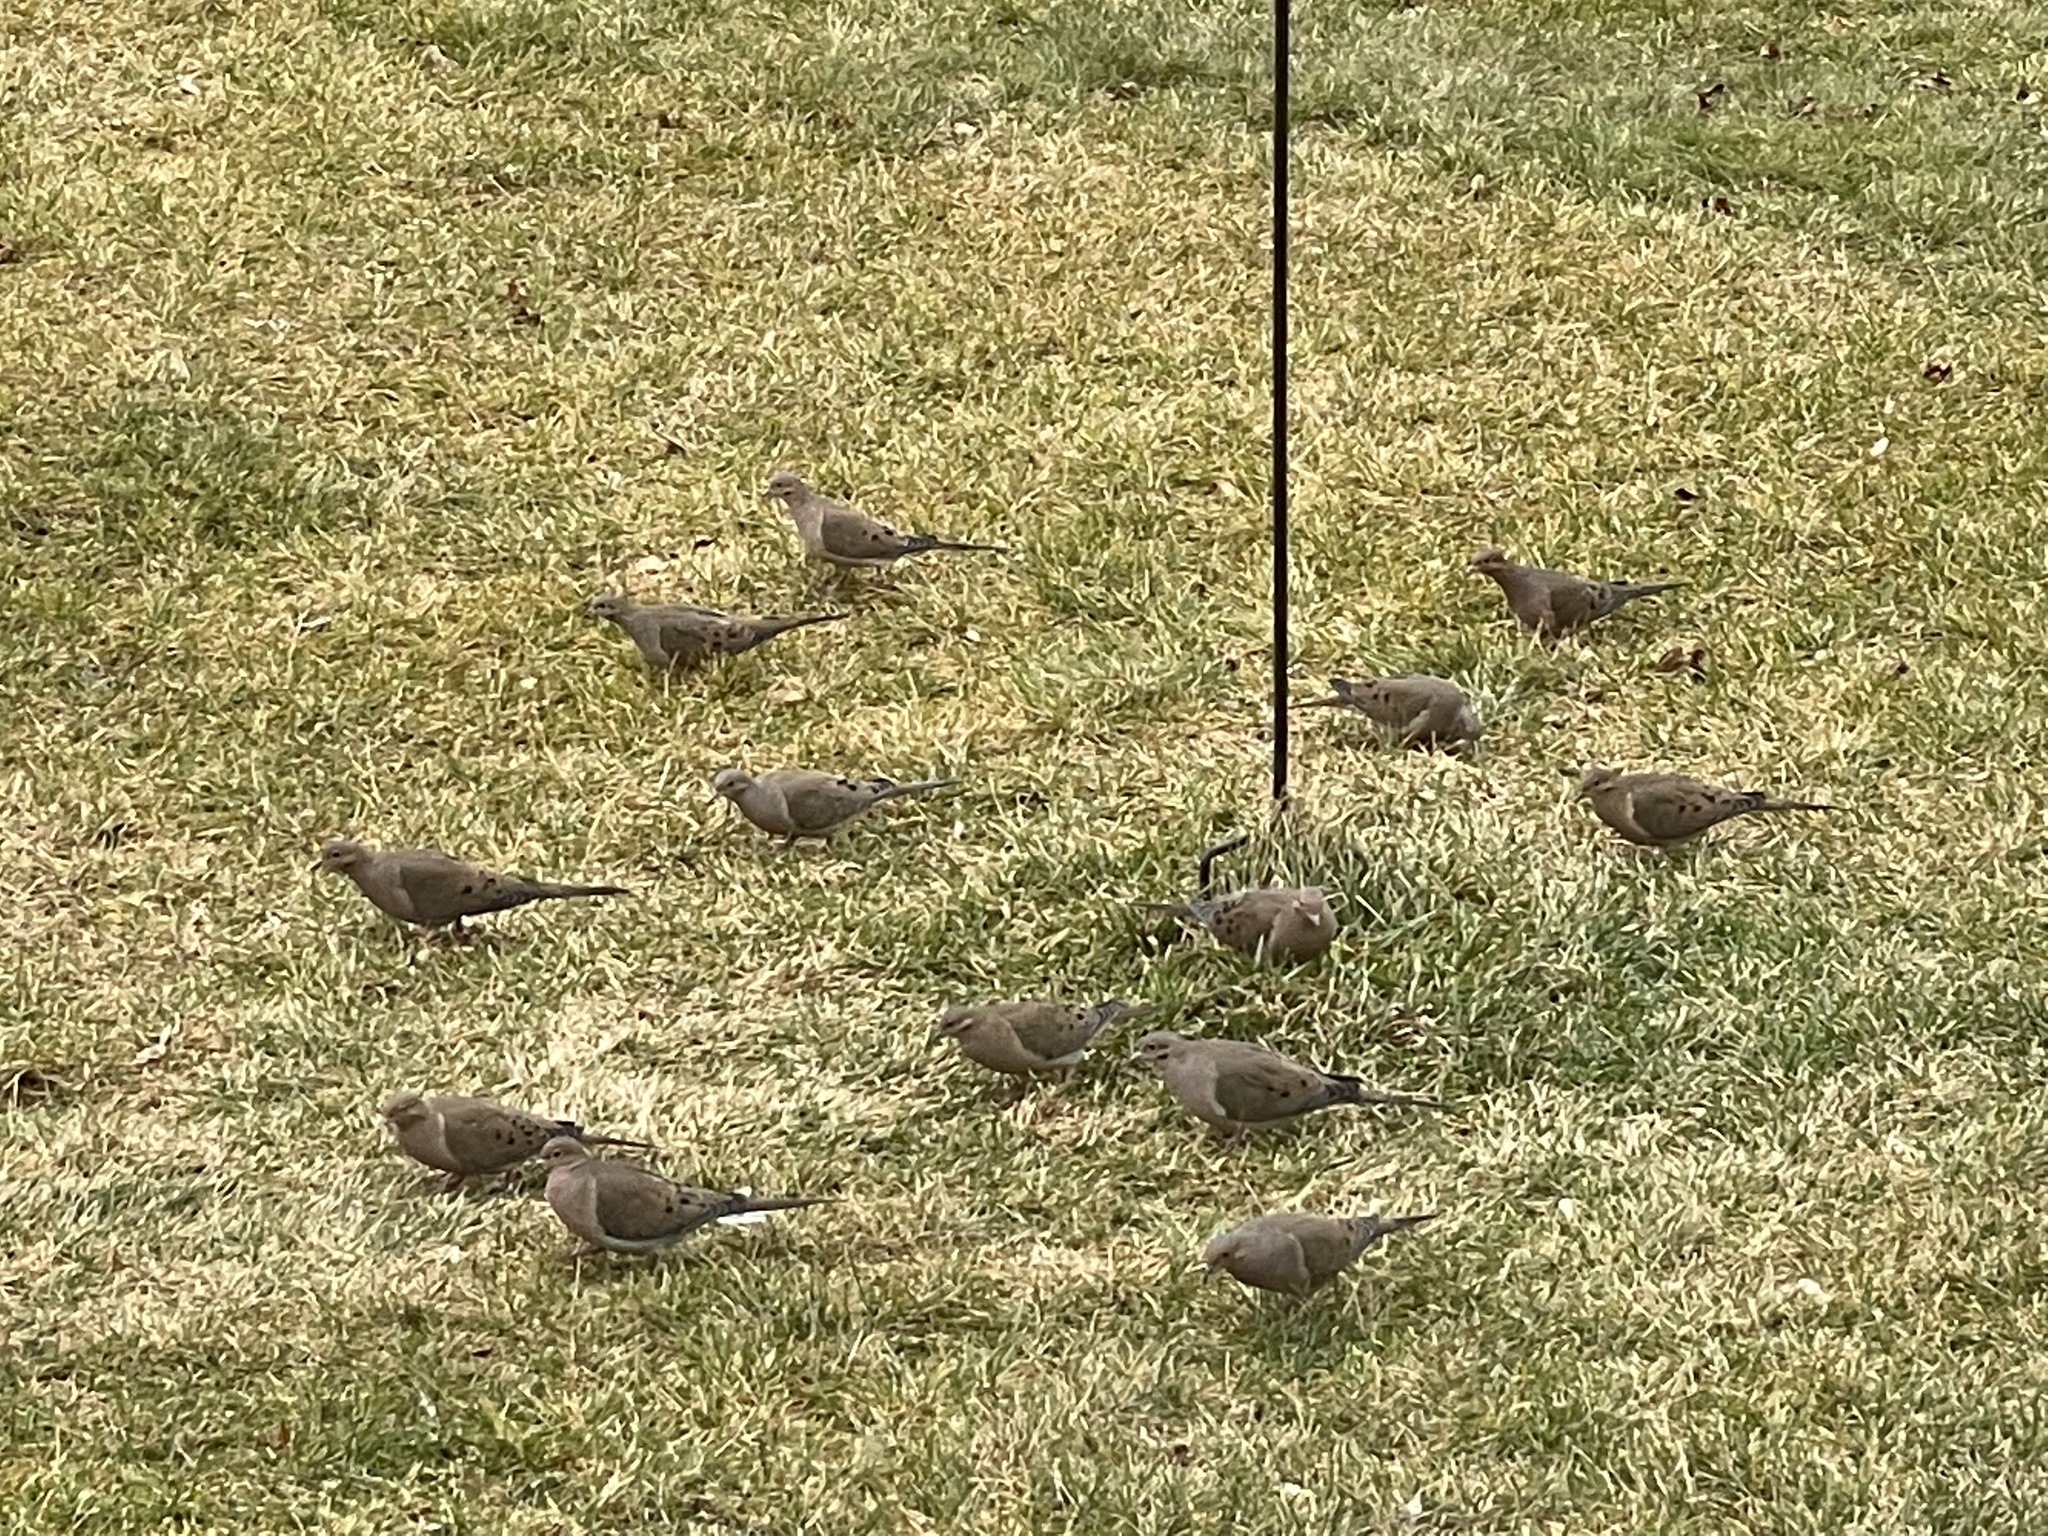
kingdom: Animalia
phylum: Chordata
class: Aves
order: Columbiformes
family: Columbidae
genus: Zenaida
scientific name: Zenaida macroura
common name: Mourning dove
